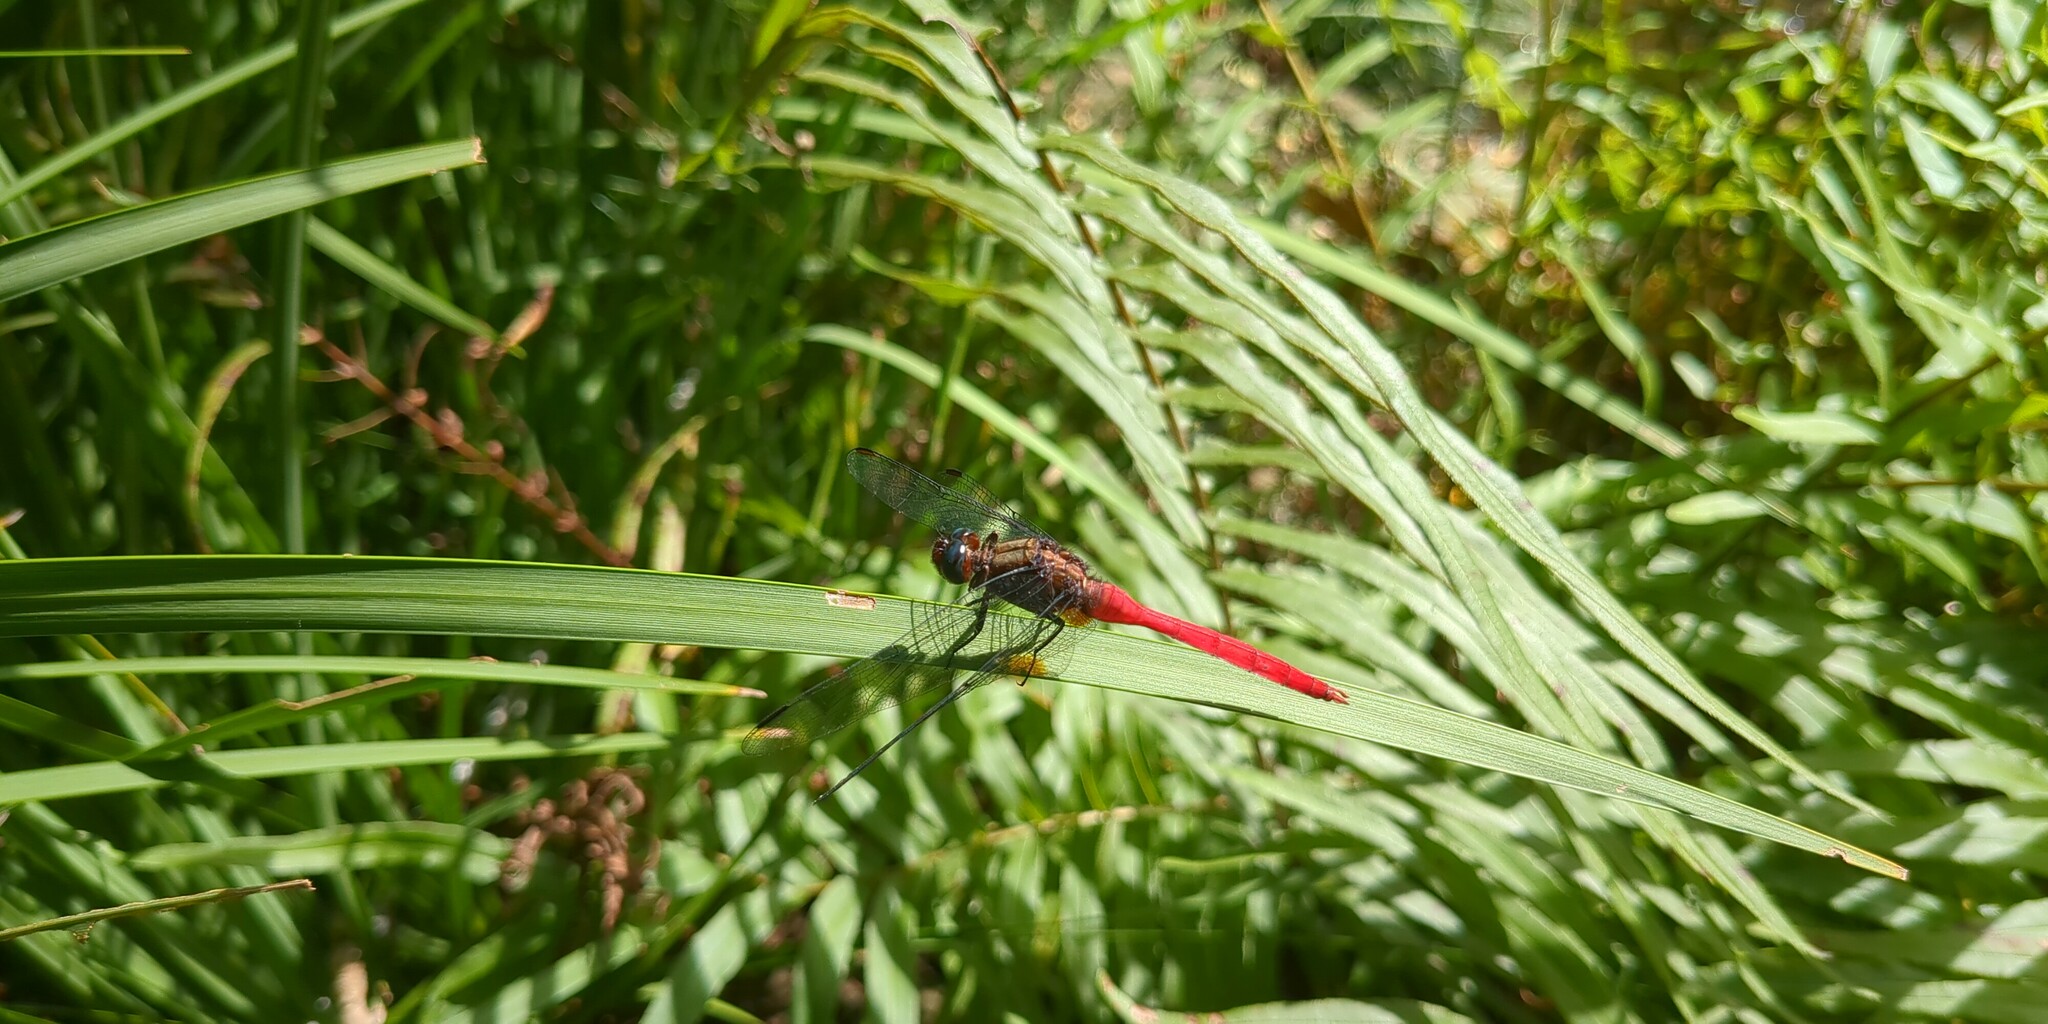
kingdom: Animalia
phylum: Arthropoda
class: Insecta
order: Odonata
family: Libellulidae
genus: Orthetrum
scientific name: Orthetrum villosovittatum
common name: Firery skimmer
